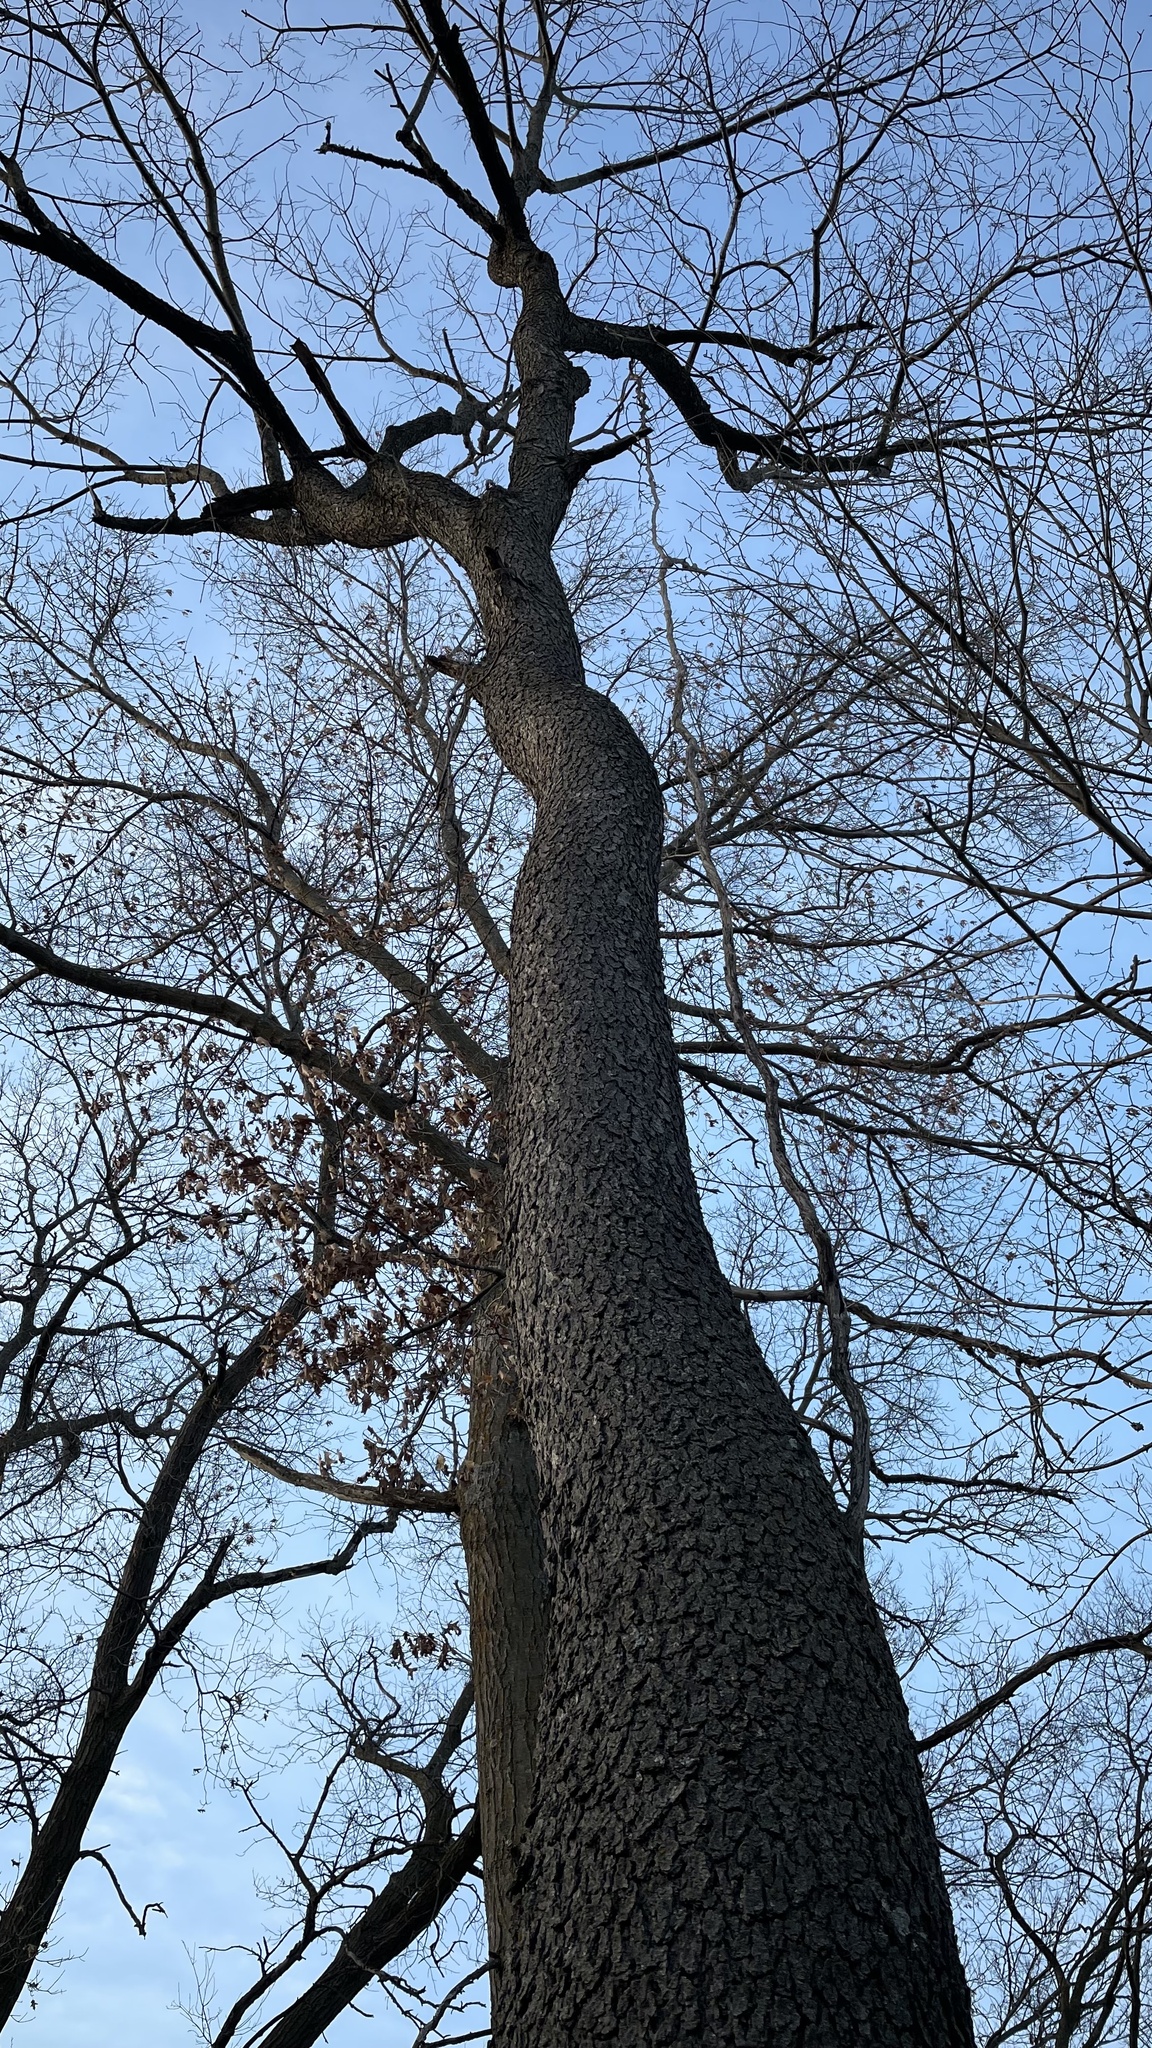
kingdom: Plantae
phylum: Tracheophyta
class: Magnoliopsida
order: Rosales
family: Rosaceae
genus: Prunus
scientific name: Prunus serotina
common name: Black cherry
